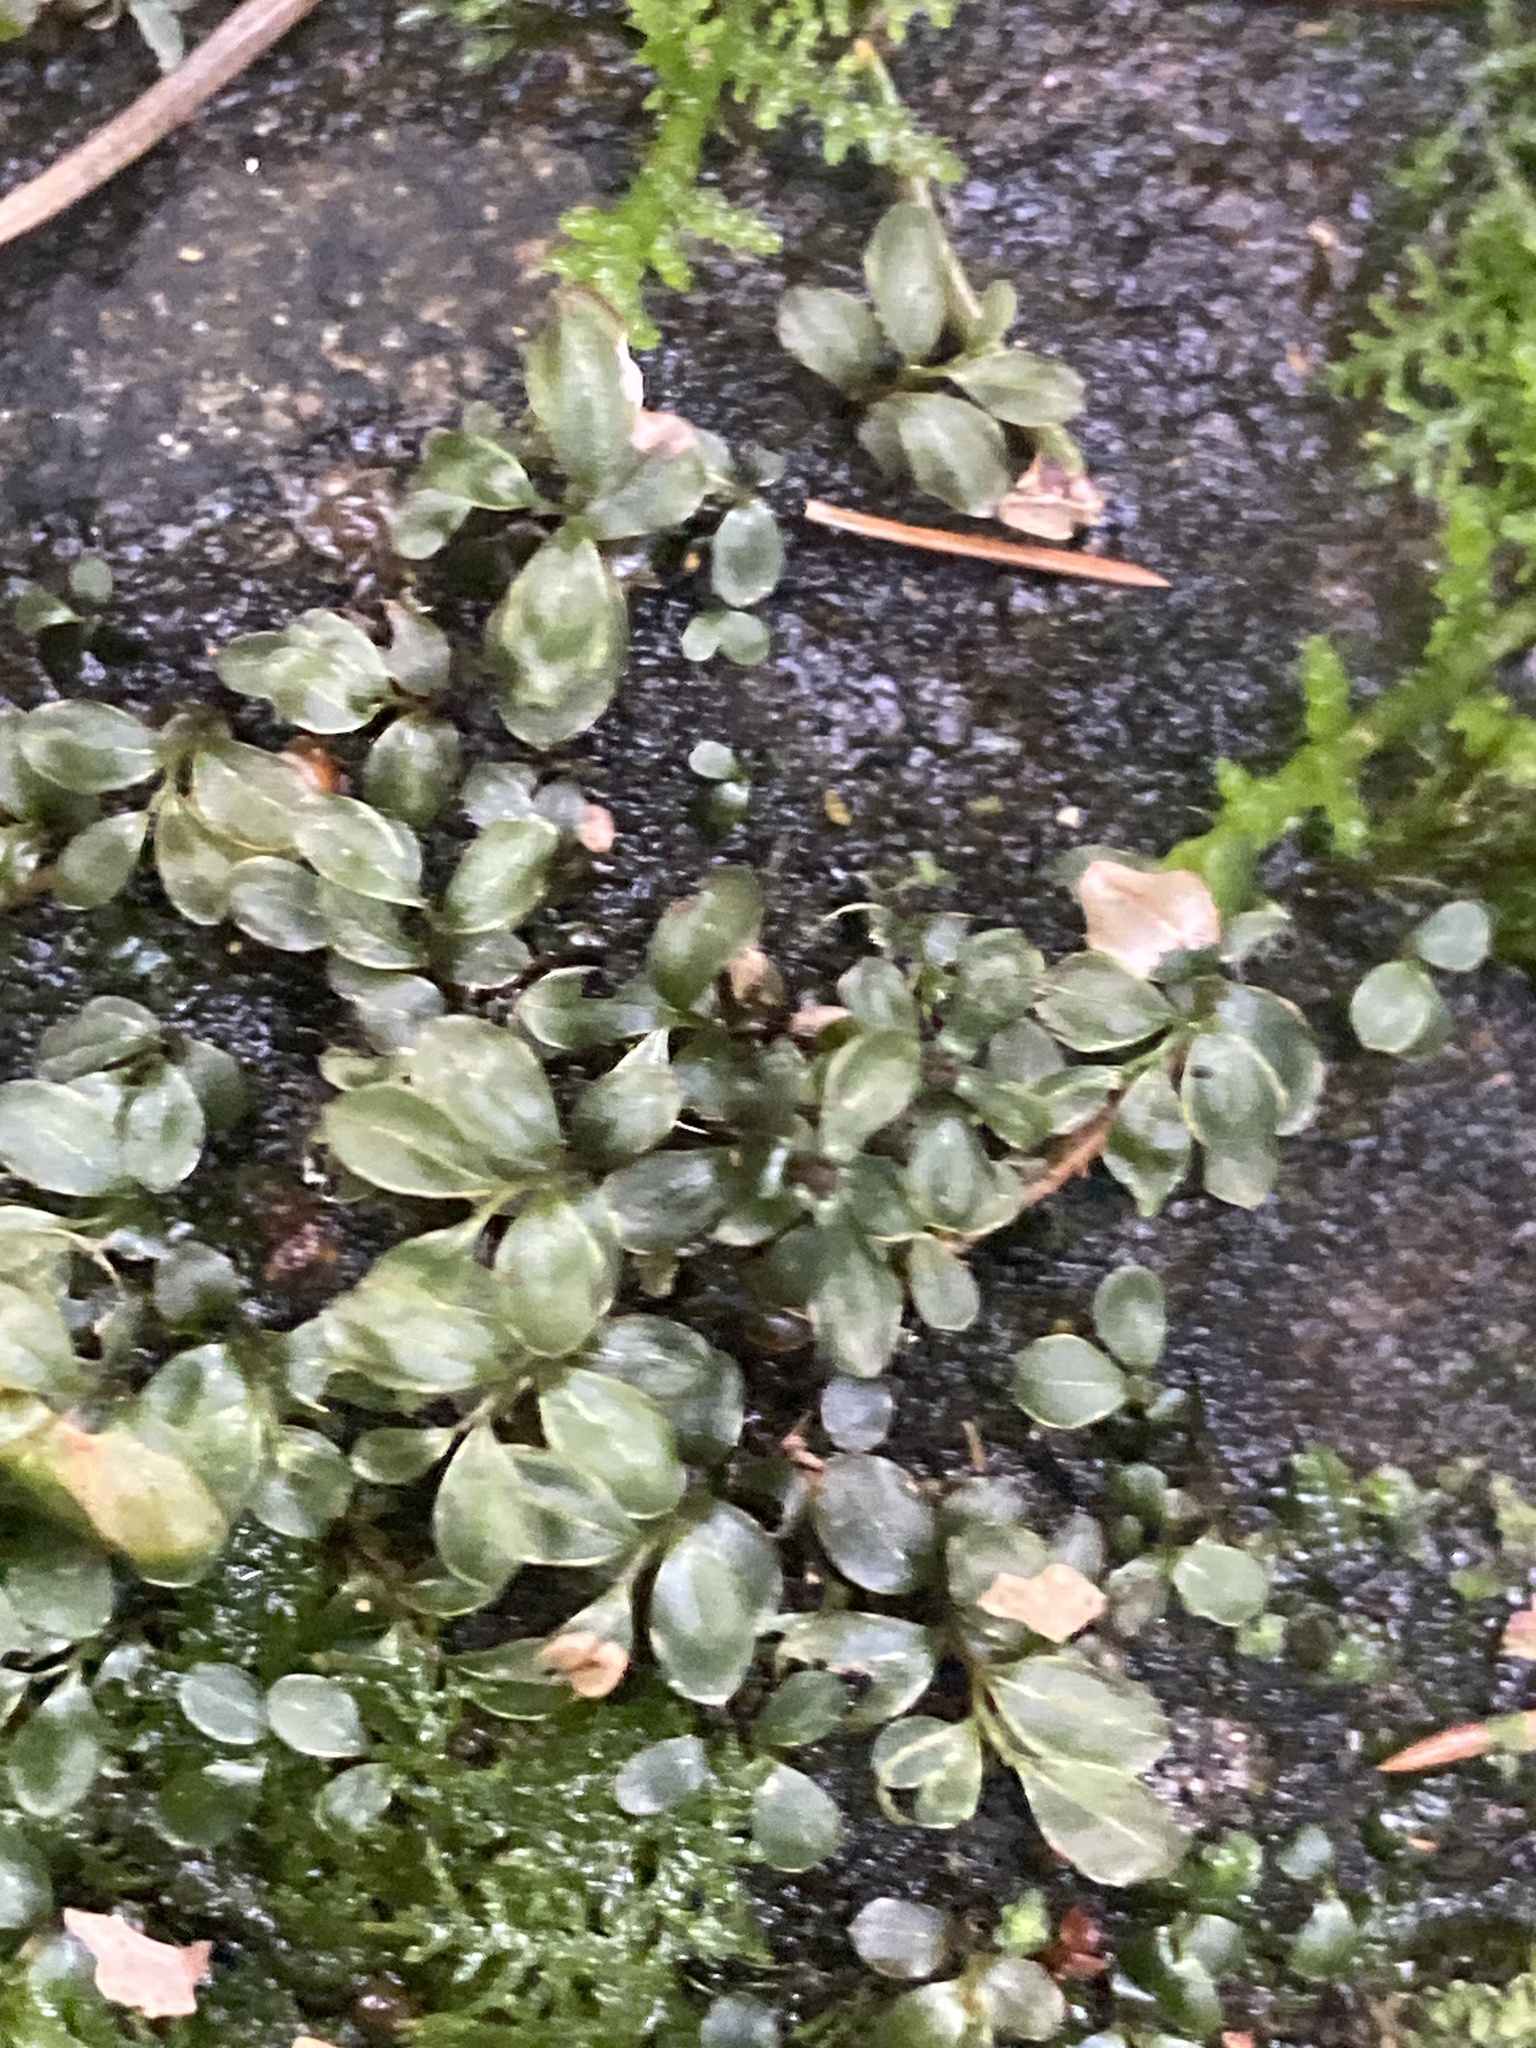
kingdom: Plantae
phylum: Bryophyta
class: Bryopsida
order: Bryales
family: Mniaceae
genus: Rhizomnium
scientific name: Rhizomnium punctatum
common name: Dotted leafy moss
